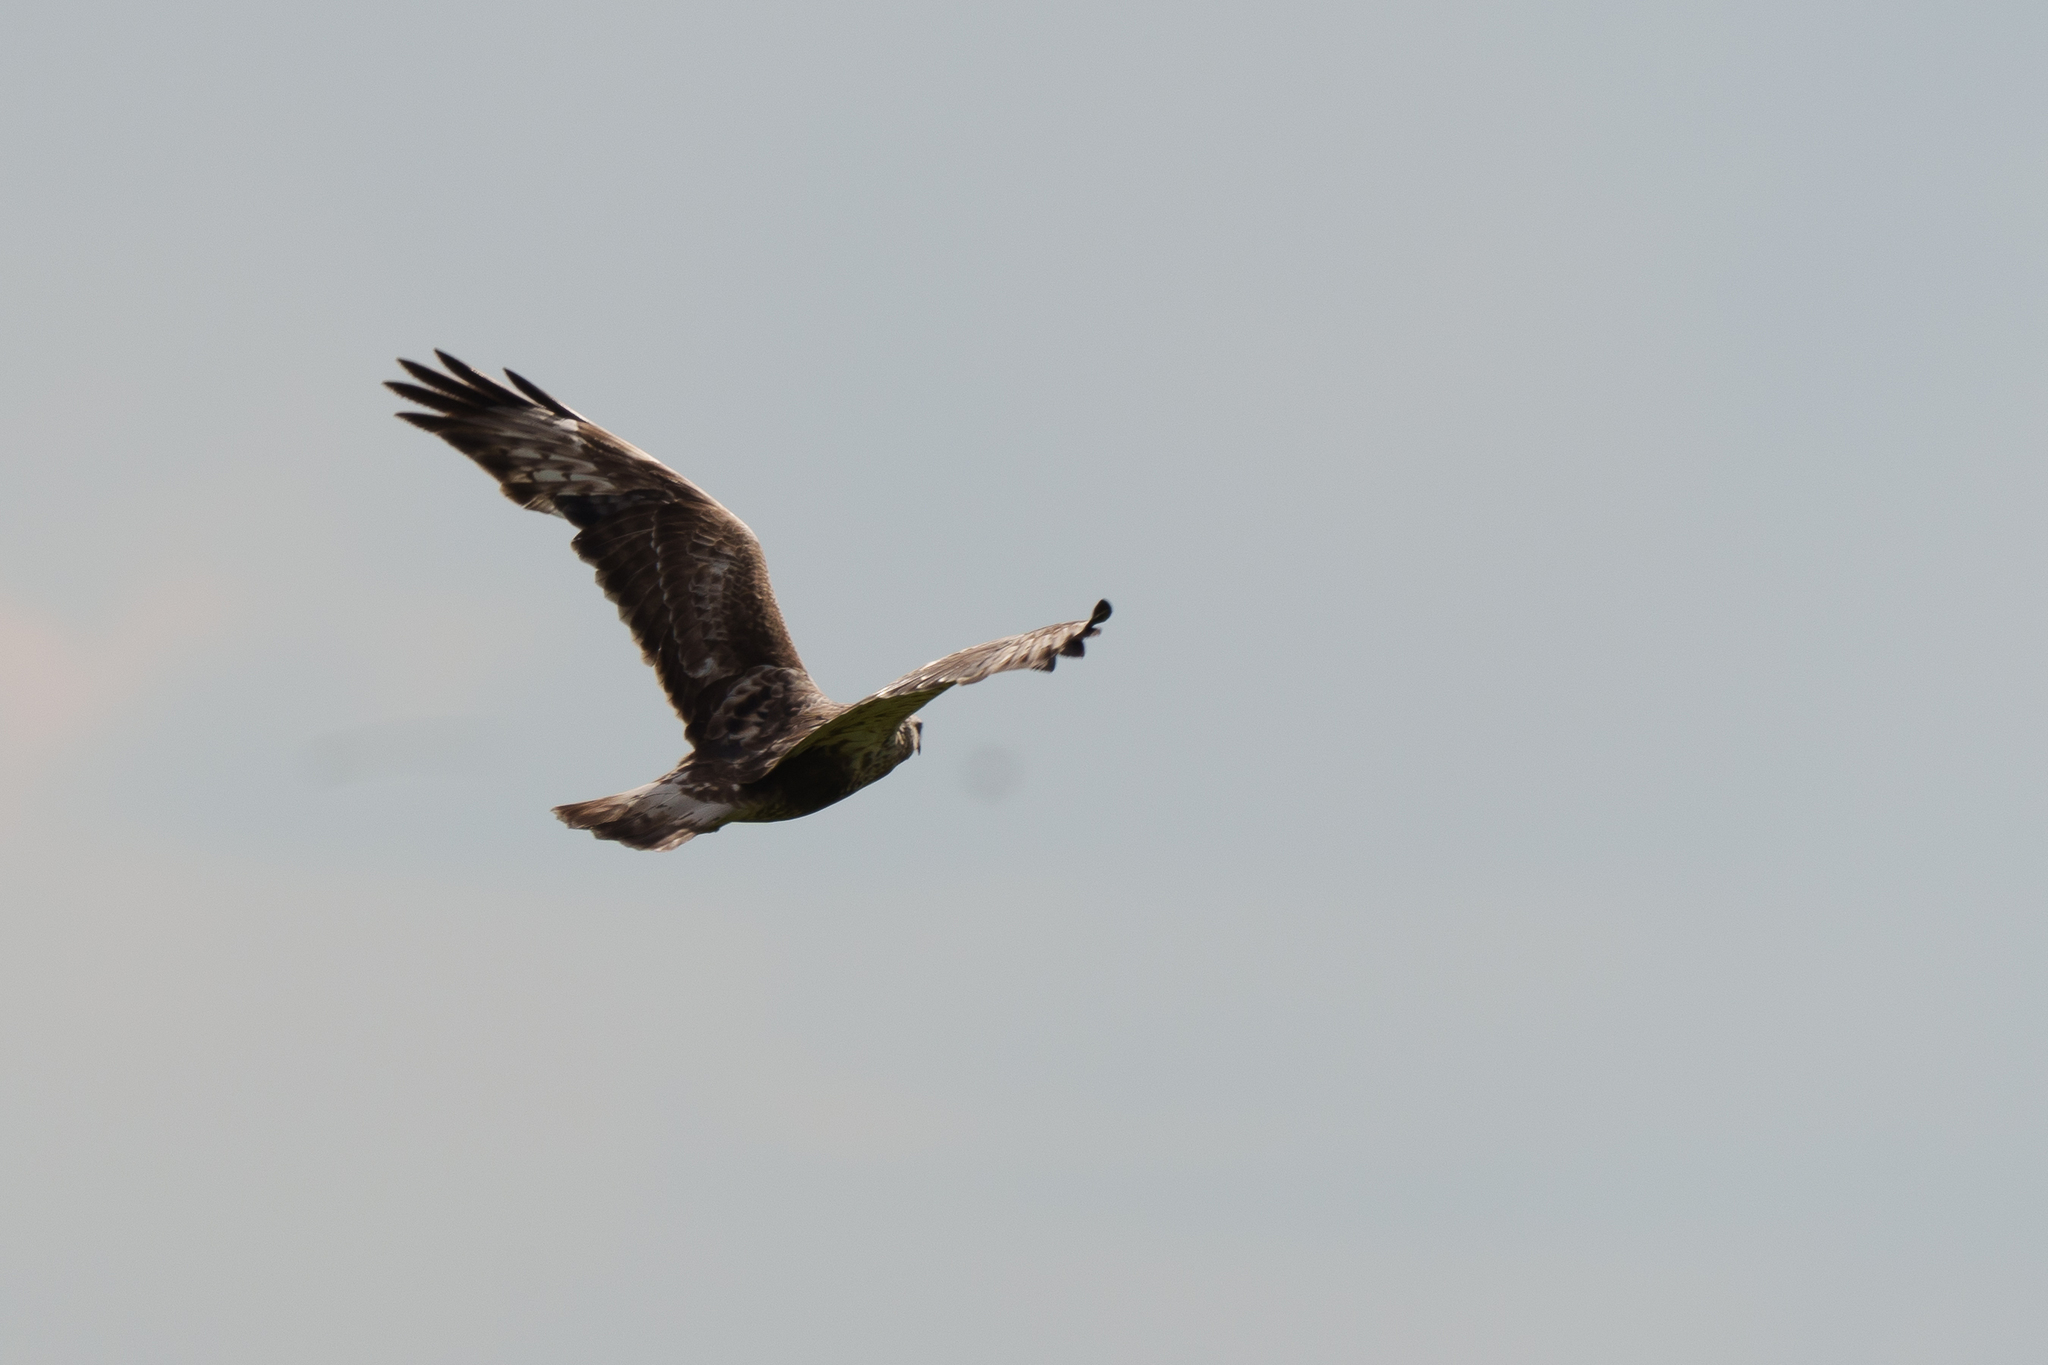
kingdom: Animalia
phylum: Chordata
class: Aves
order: Accipitriformes
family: Accipitridae
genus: Buteo
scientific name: Buteo lagopus
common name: Rough-legged buzzard
